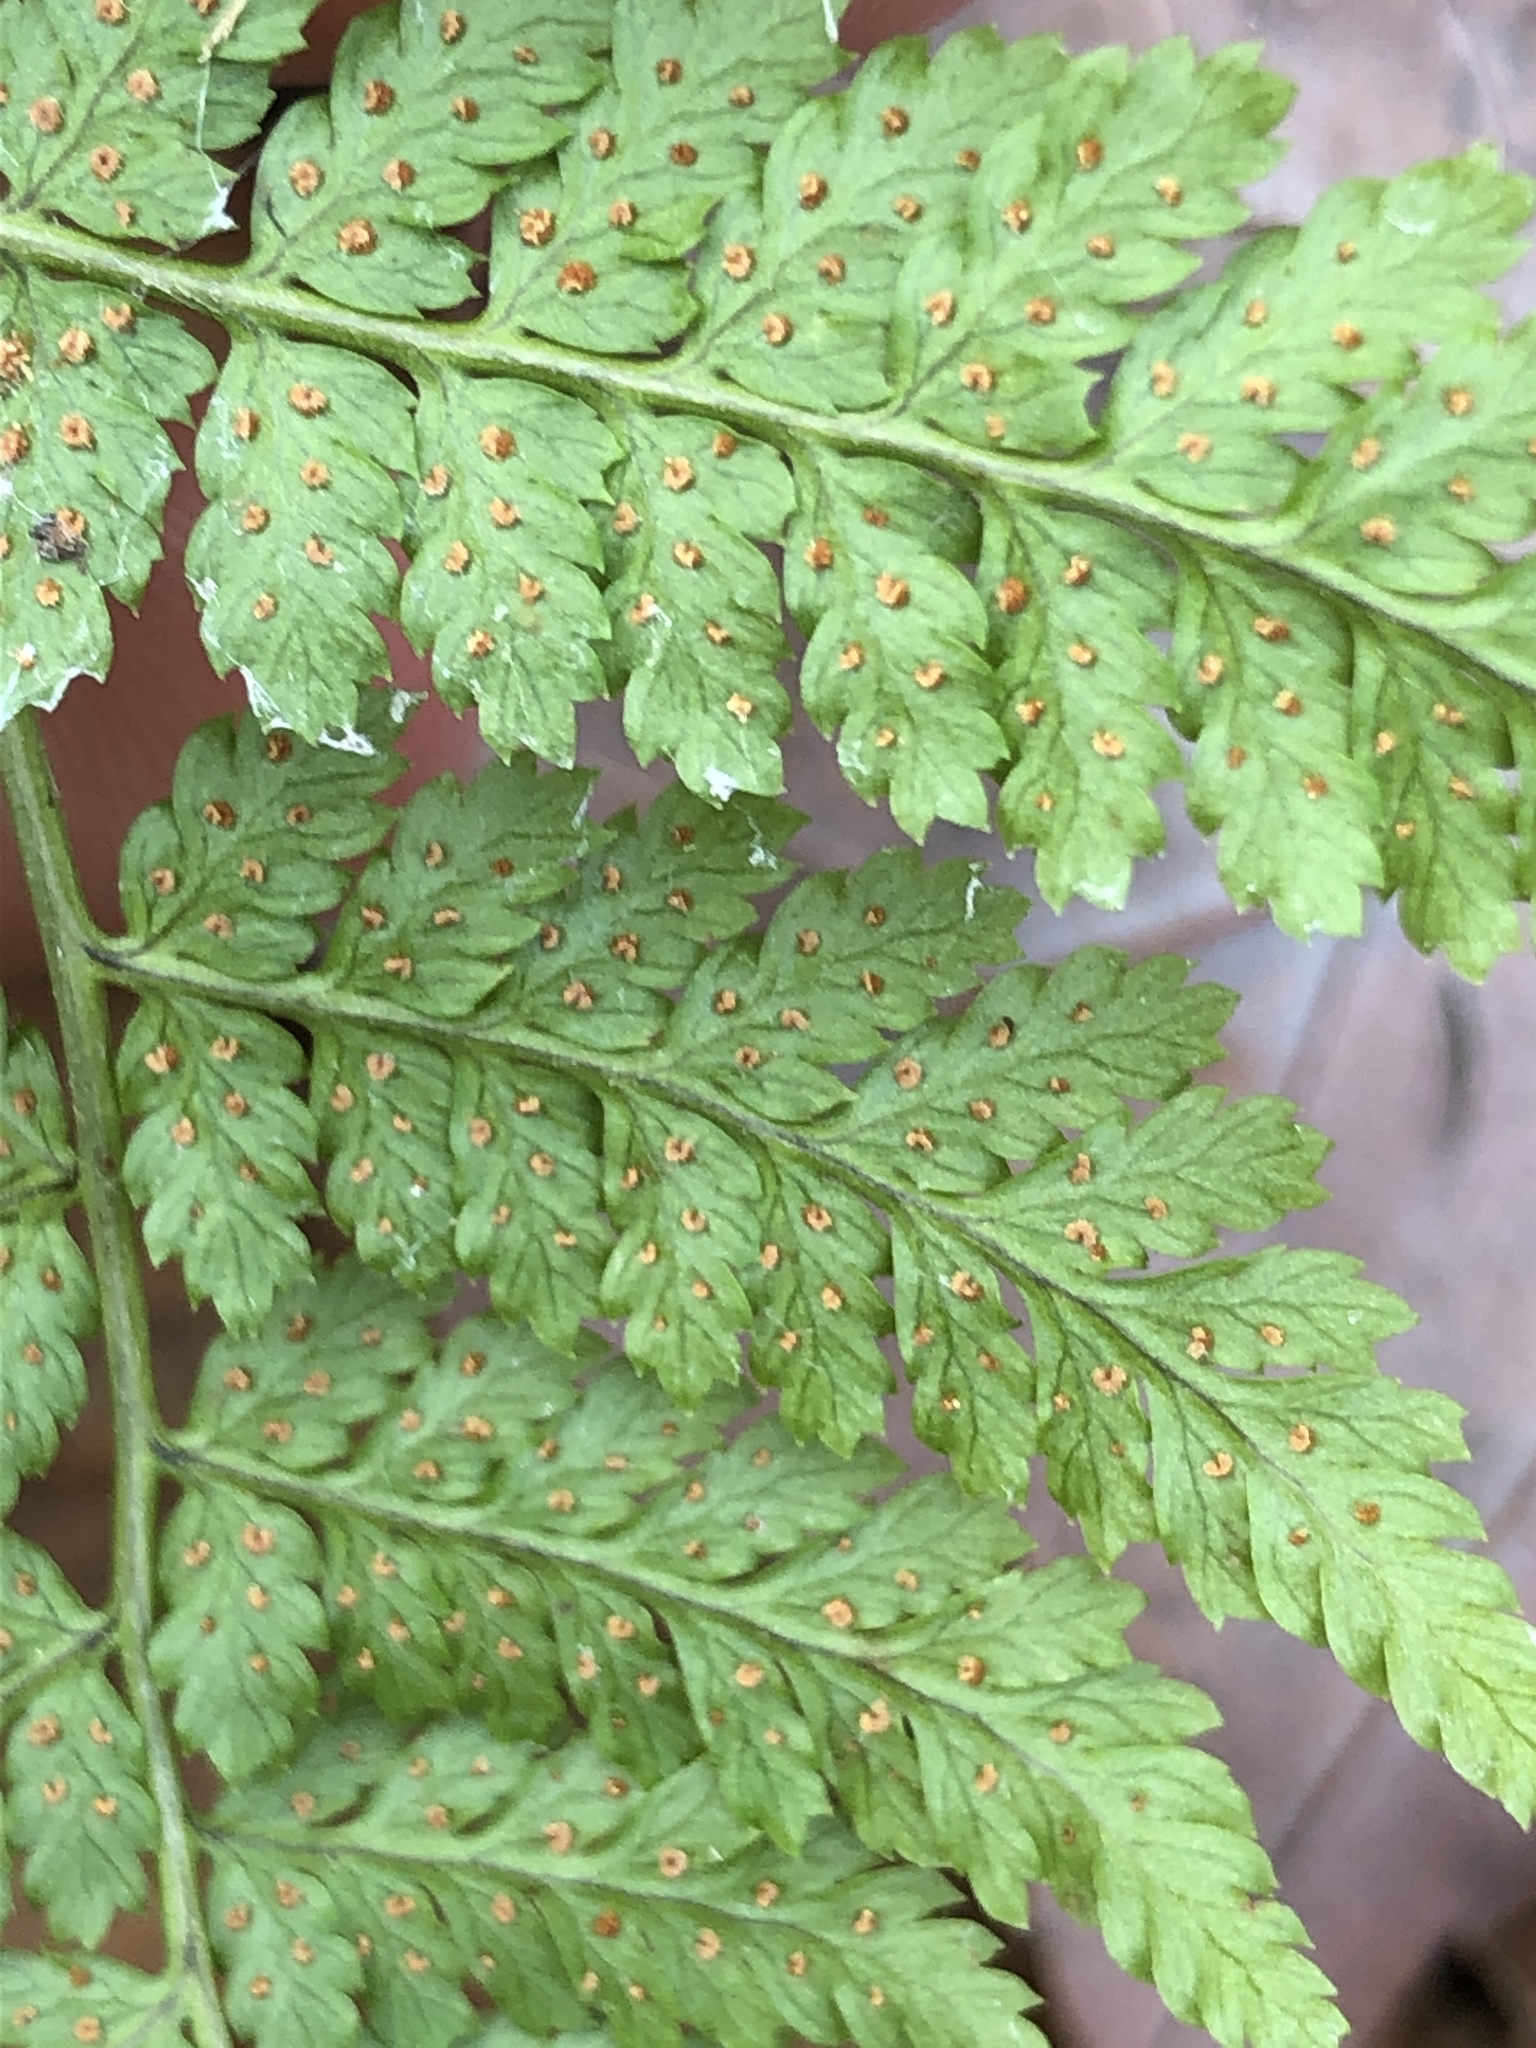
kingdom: Plantae
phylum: Tracheophyta
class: Polypodiopsida
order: Polypodiales
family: Dryopteridaceae
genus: Dryopteris
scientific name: Dryopteris intermedia
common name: Evergreen wood fern
